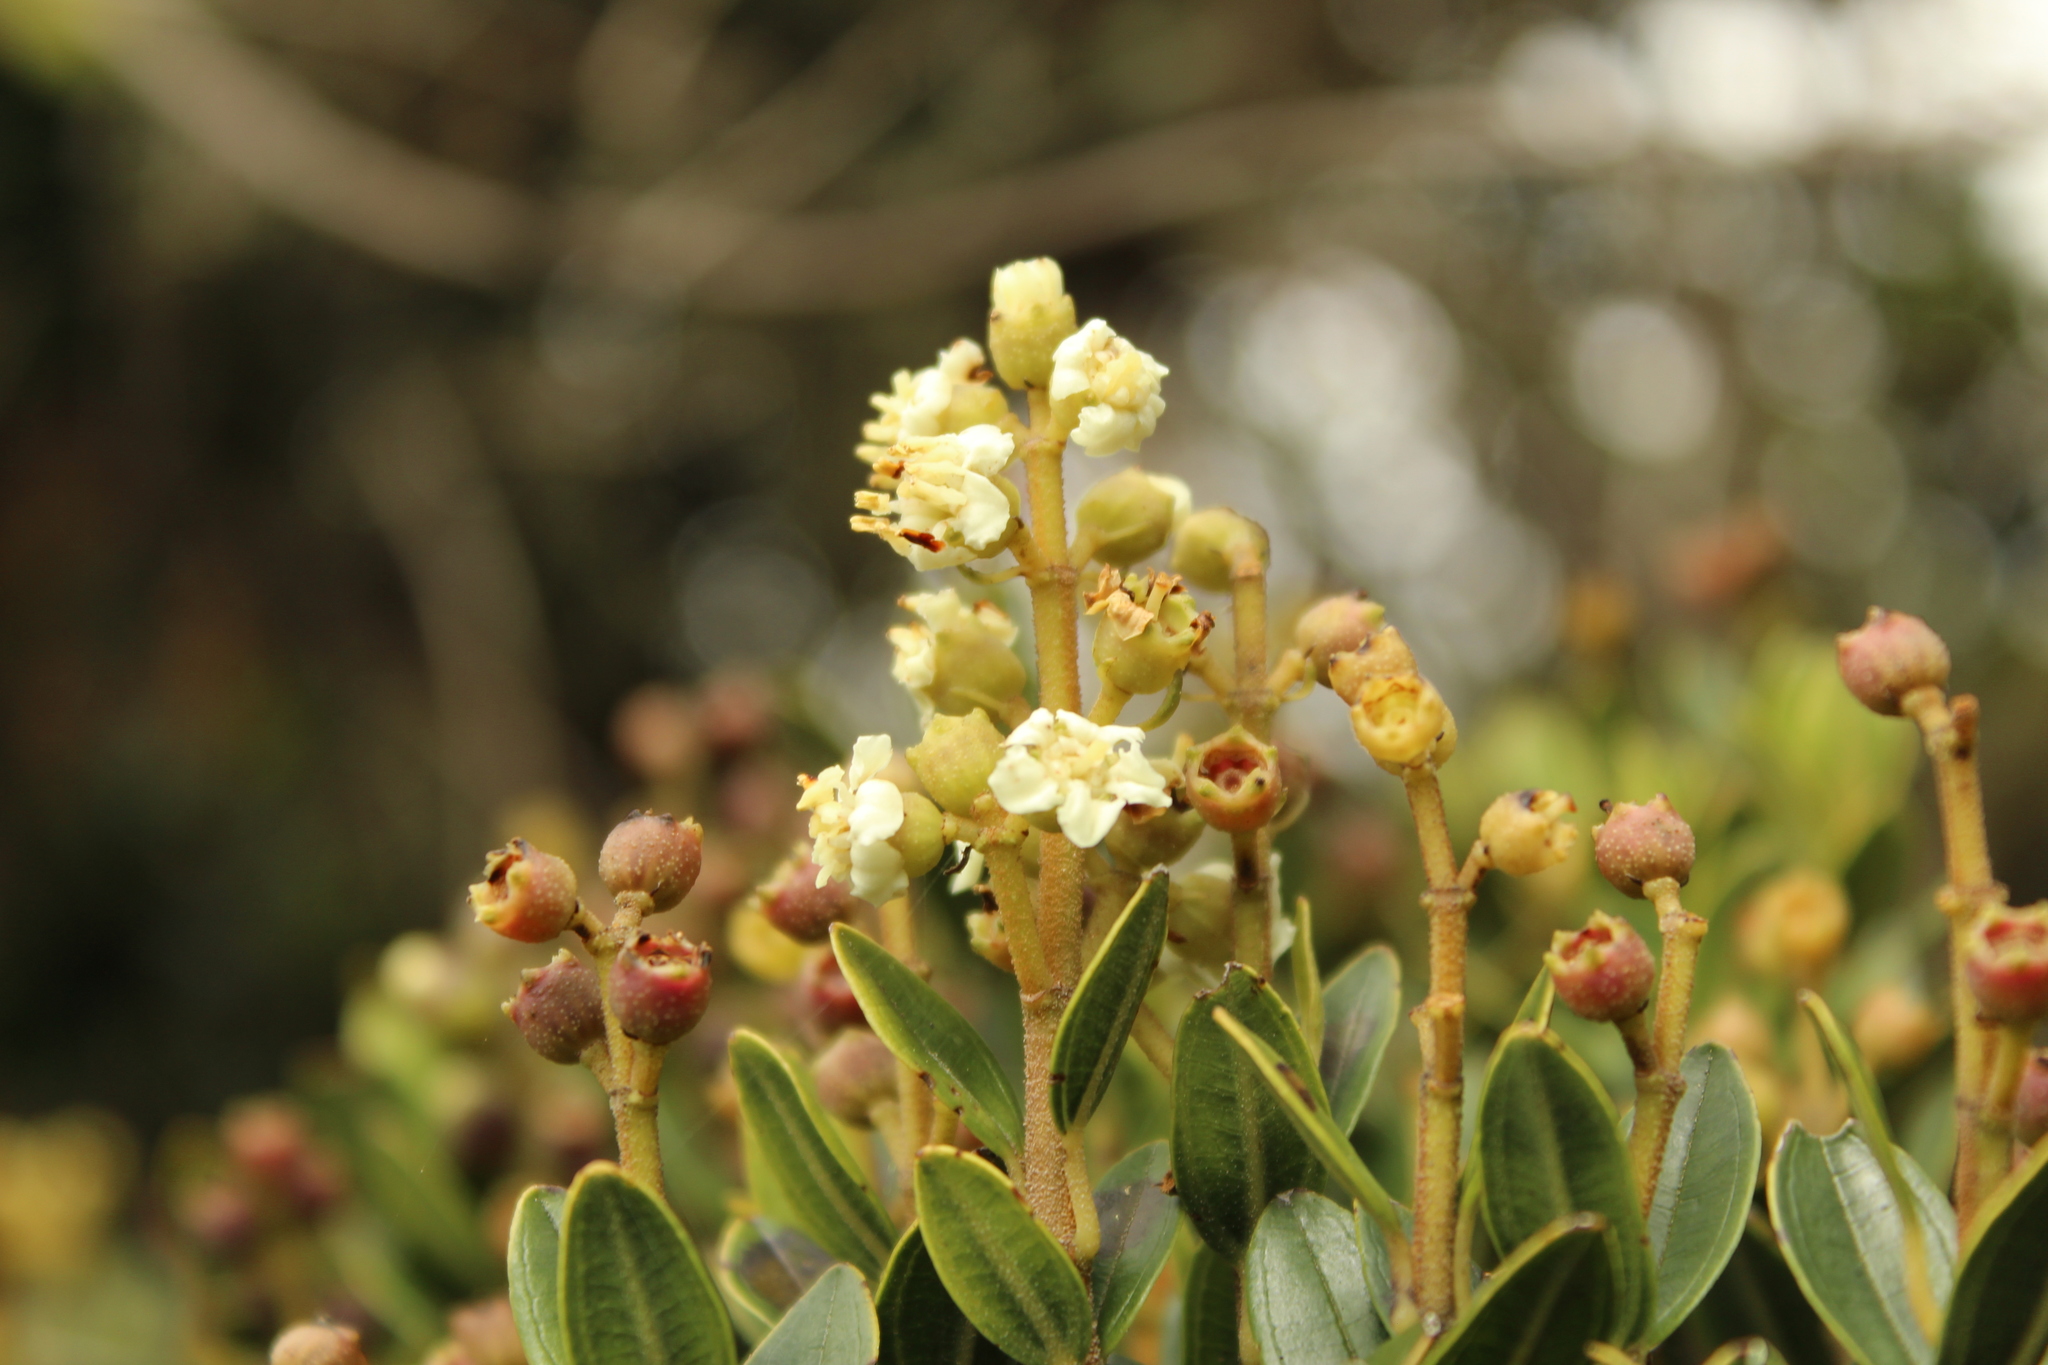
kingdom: Plantae
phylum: Tracheophyta
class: Magnoliopsida
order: Myrtales
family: Melastomataceae
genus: Miconia
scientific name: Miconia summa
